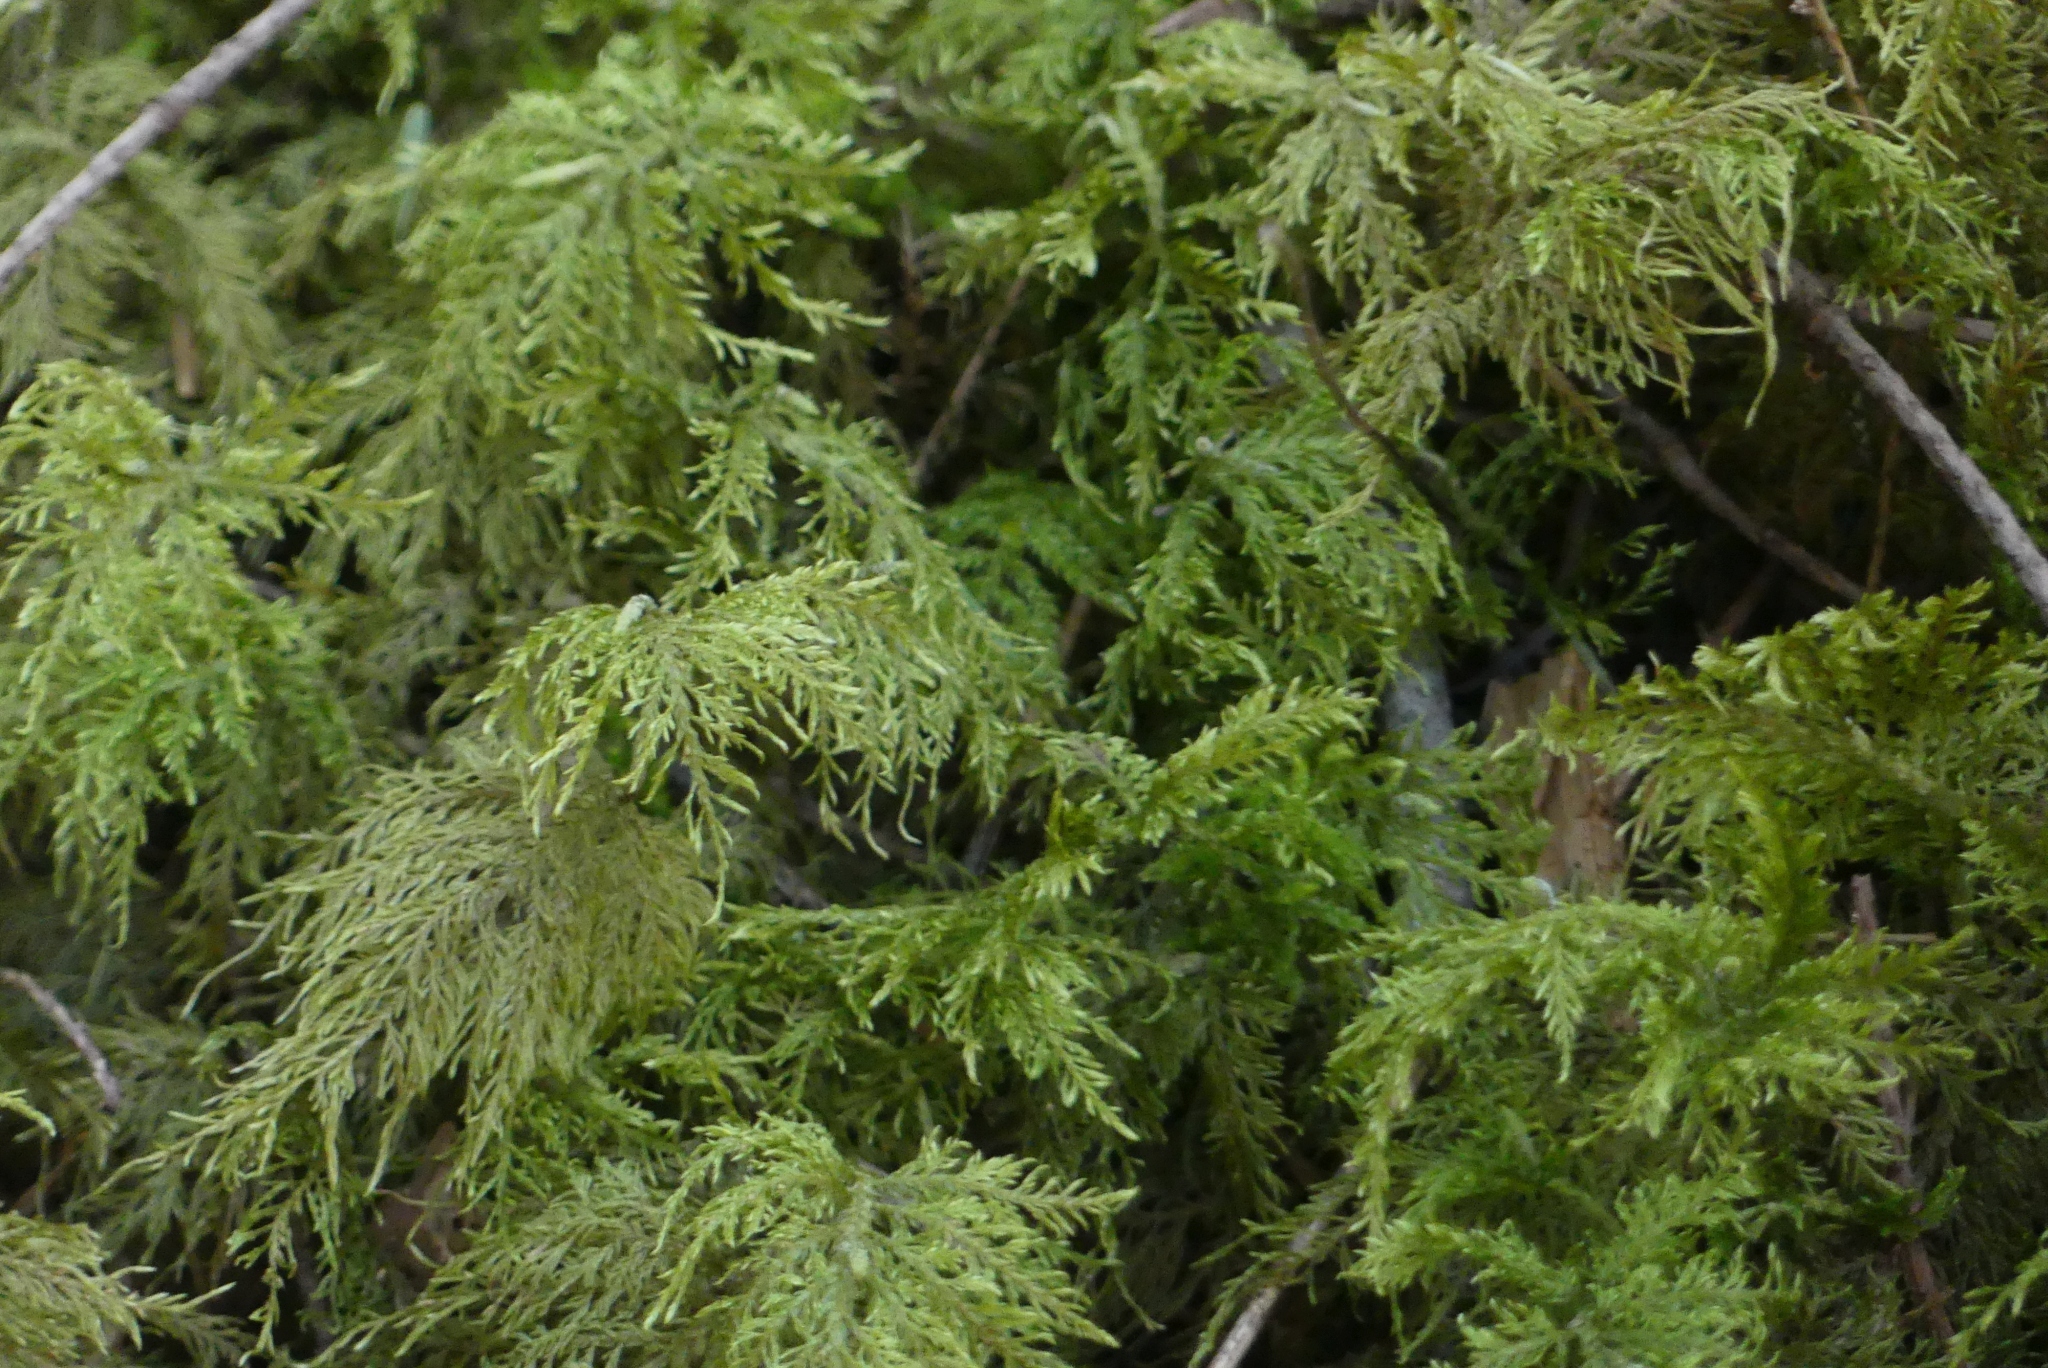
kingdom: Plantae
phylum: Bryophyta
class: Bryopsida
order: Hypnales
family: Hylocomiaceae
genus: Hylocomium
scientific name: Hylocomium splendens
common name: Stairstep moss
